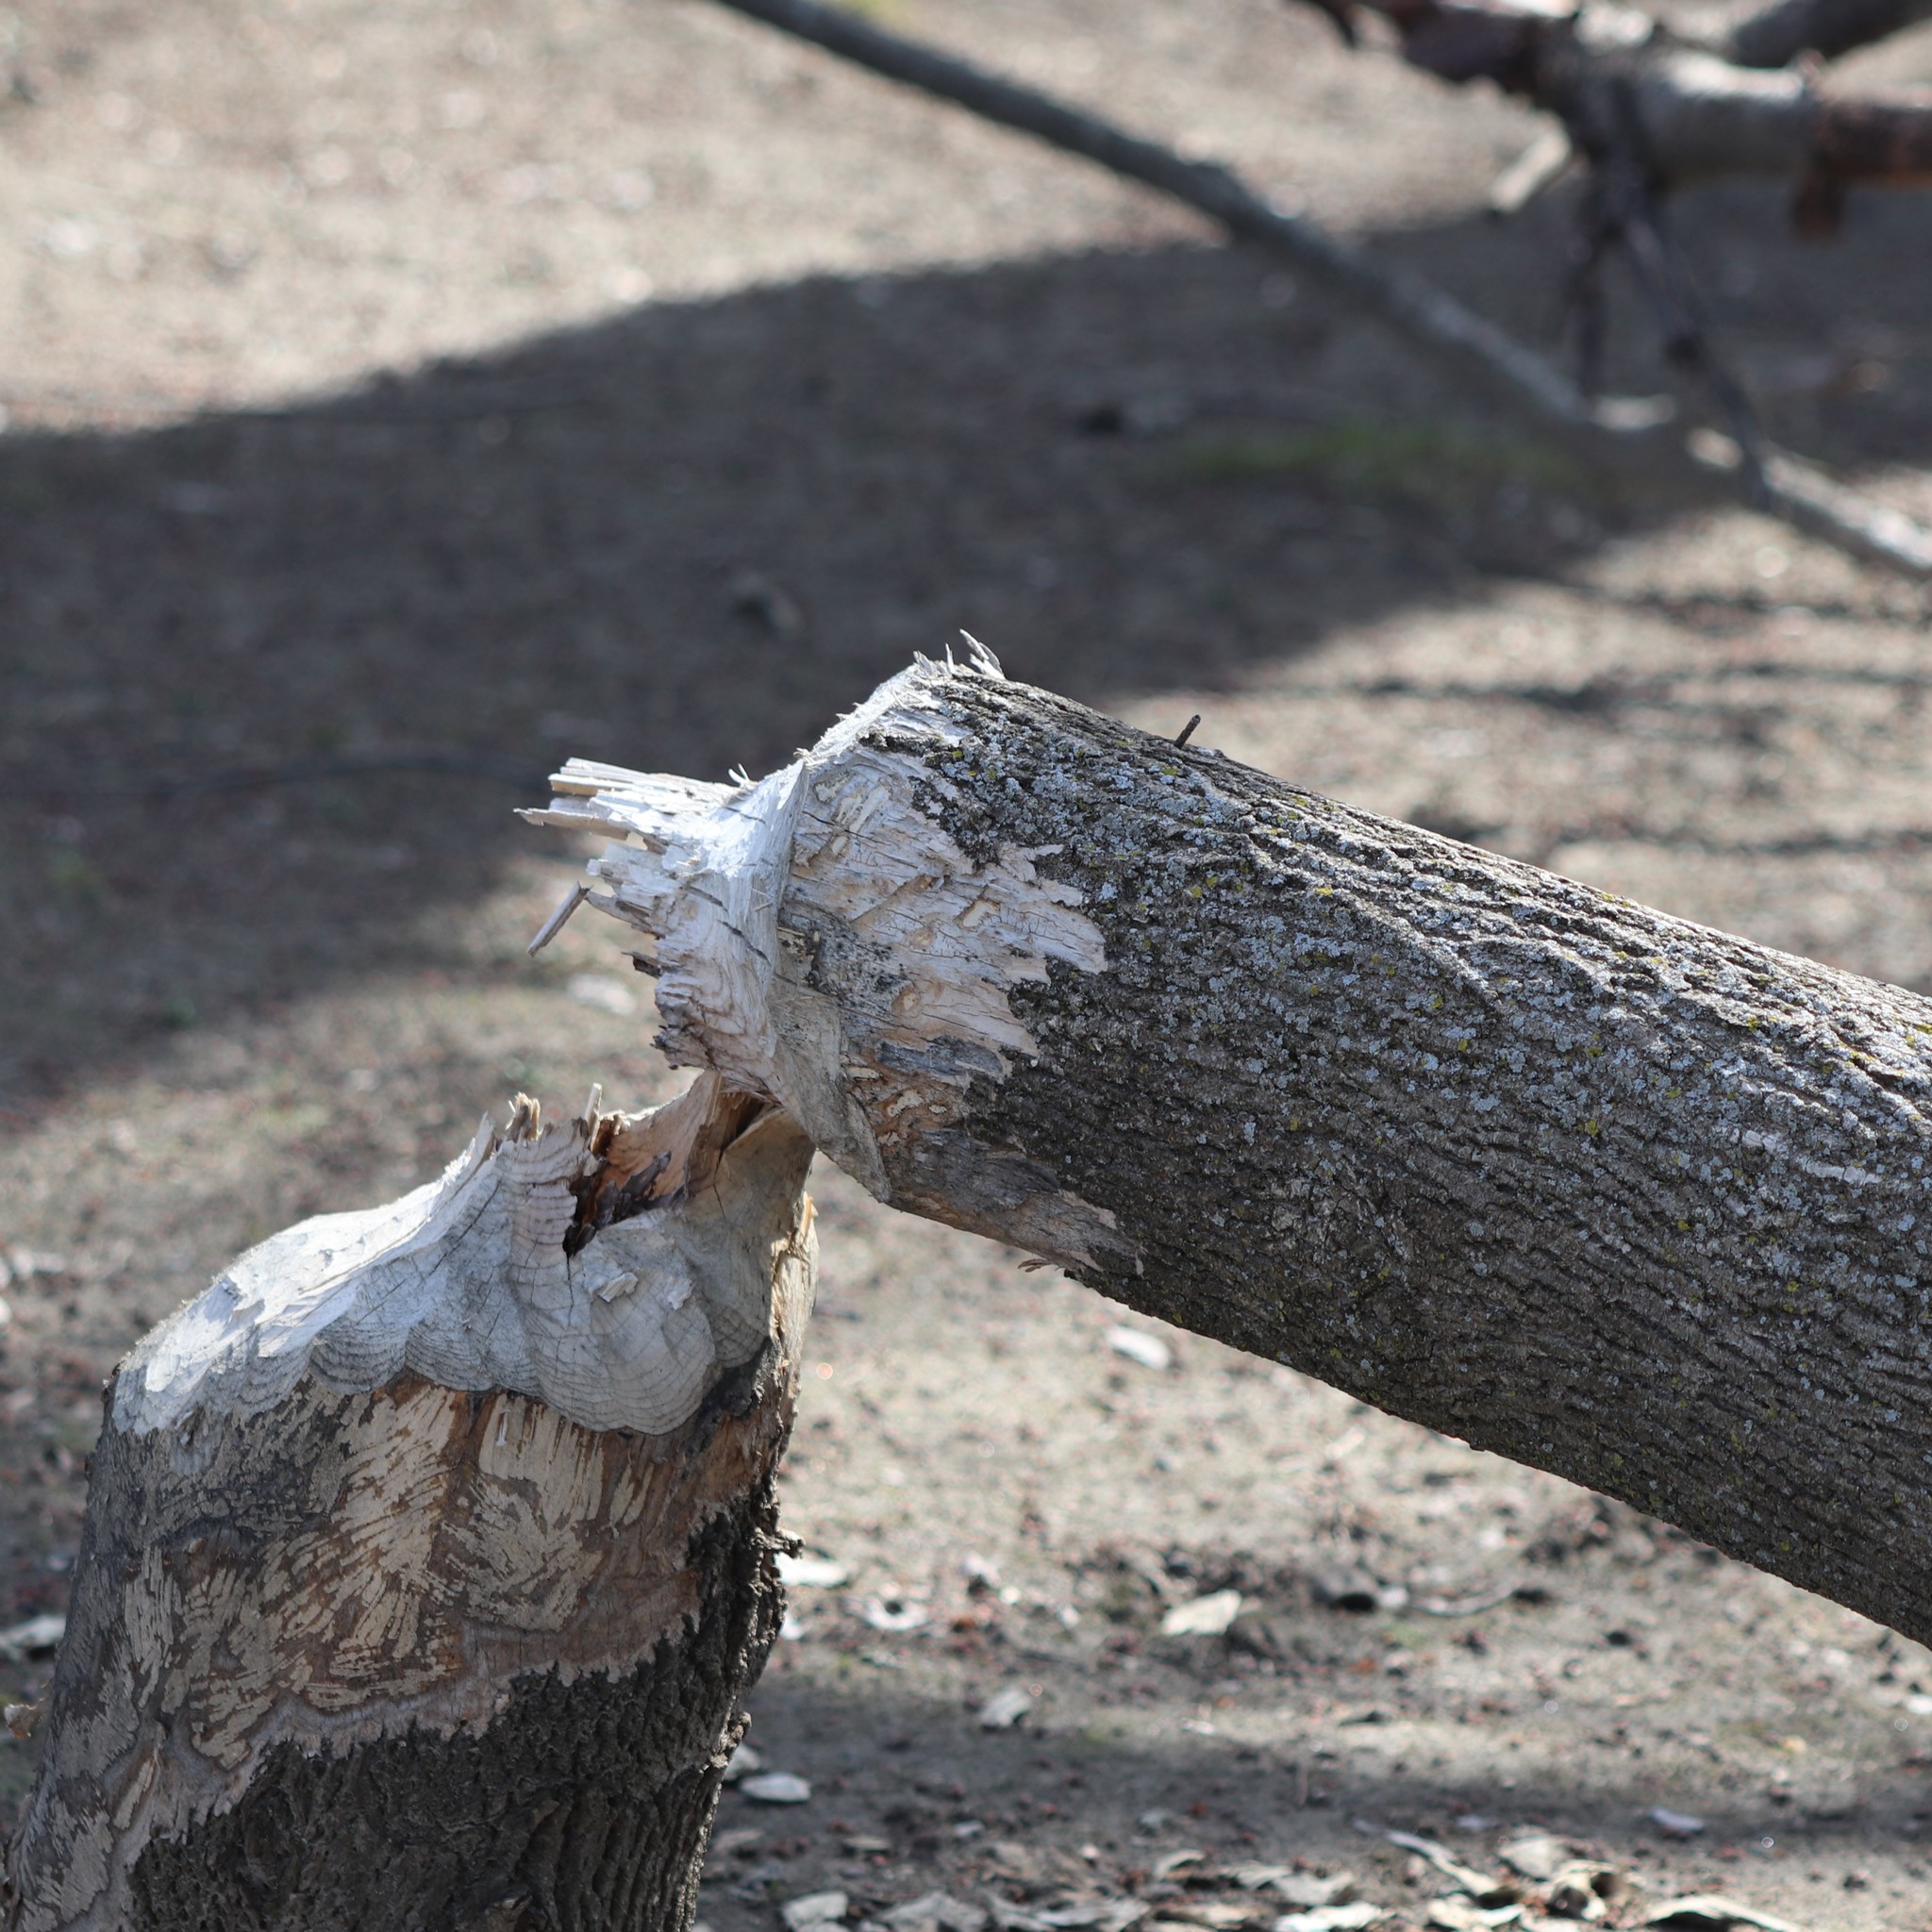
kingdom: Animalia
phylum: Chordata
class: Mammalia
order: Rodentia
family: Castoridae
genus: Castor
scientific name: Castor canadensis
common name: American beaver
